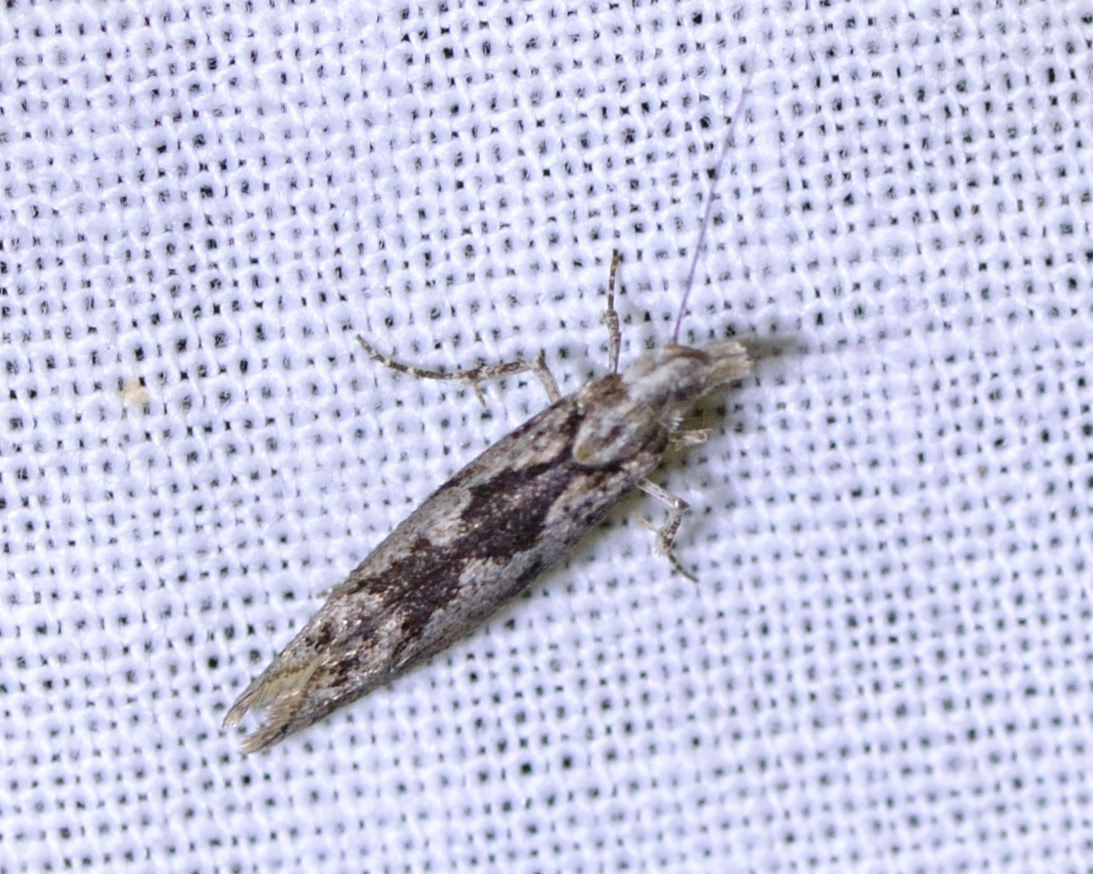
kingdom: Animalia
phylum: Arthropoda
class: Insecta
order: Lepidoptera
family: Plutellidae
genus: Ypsolophus
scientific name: Ypsolophus sequella
